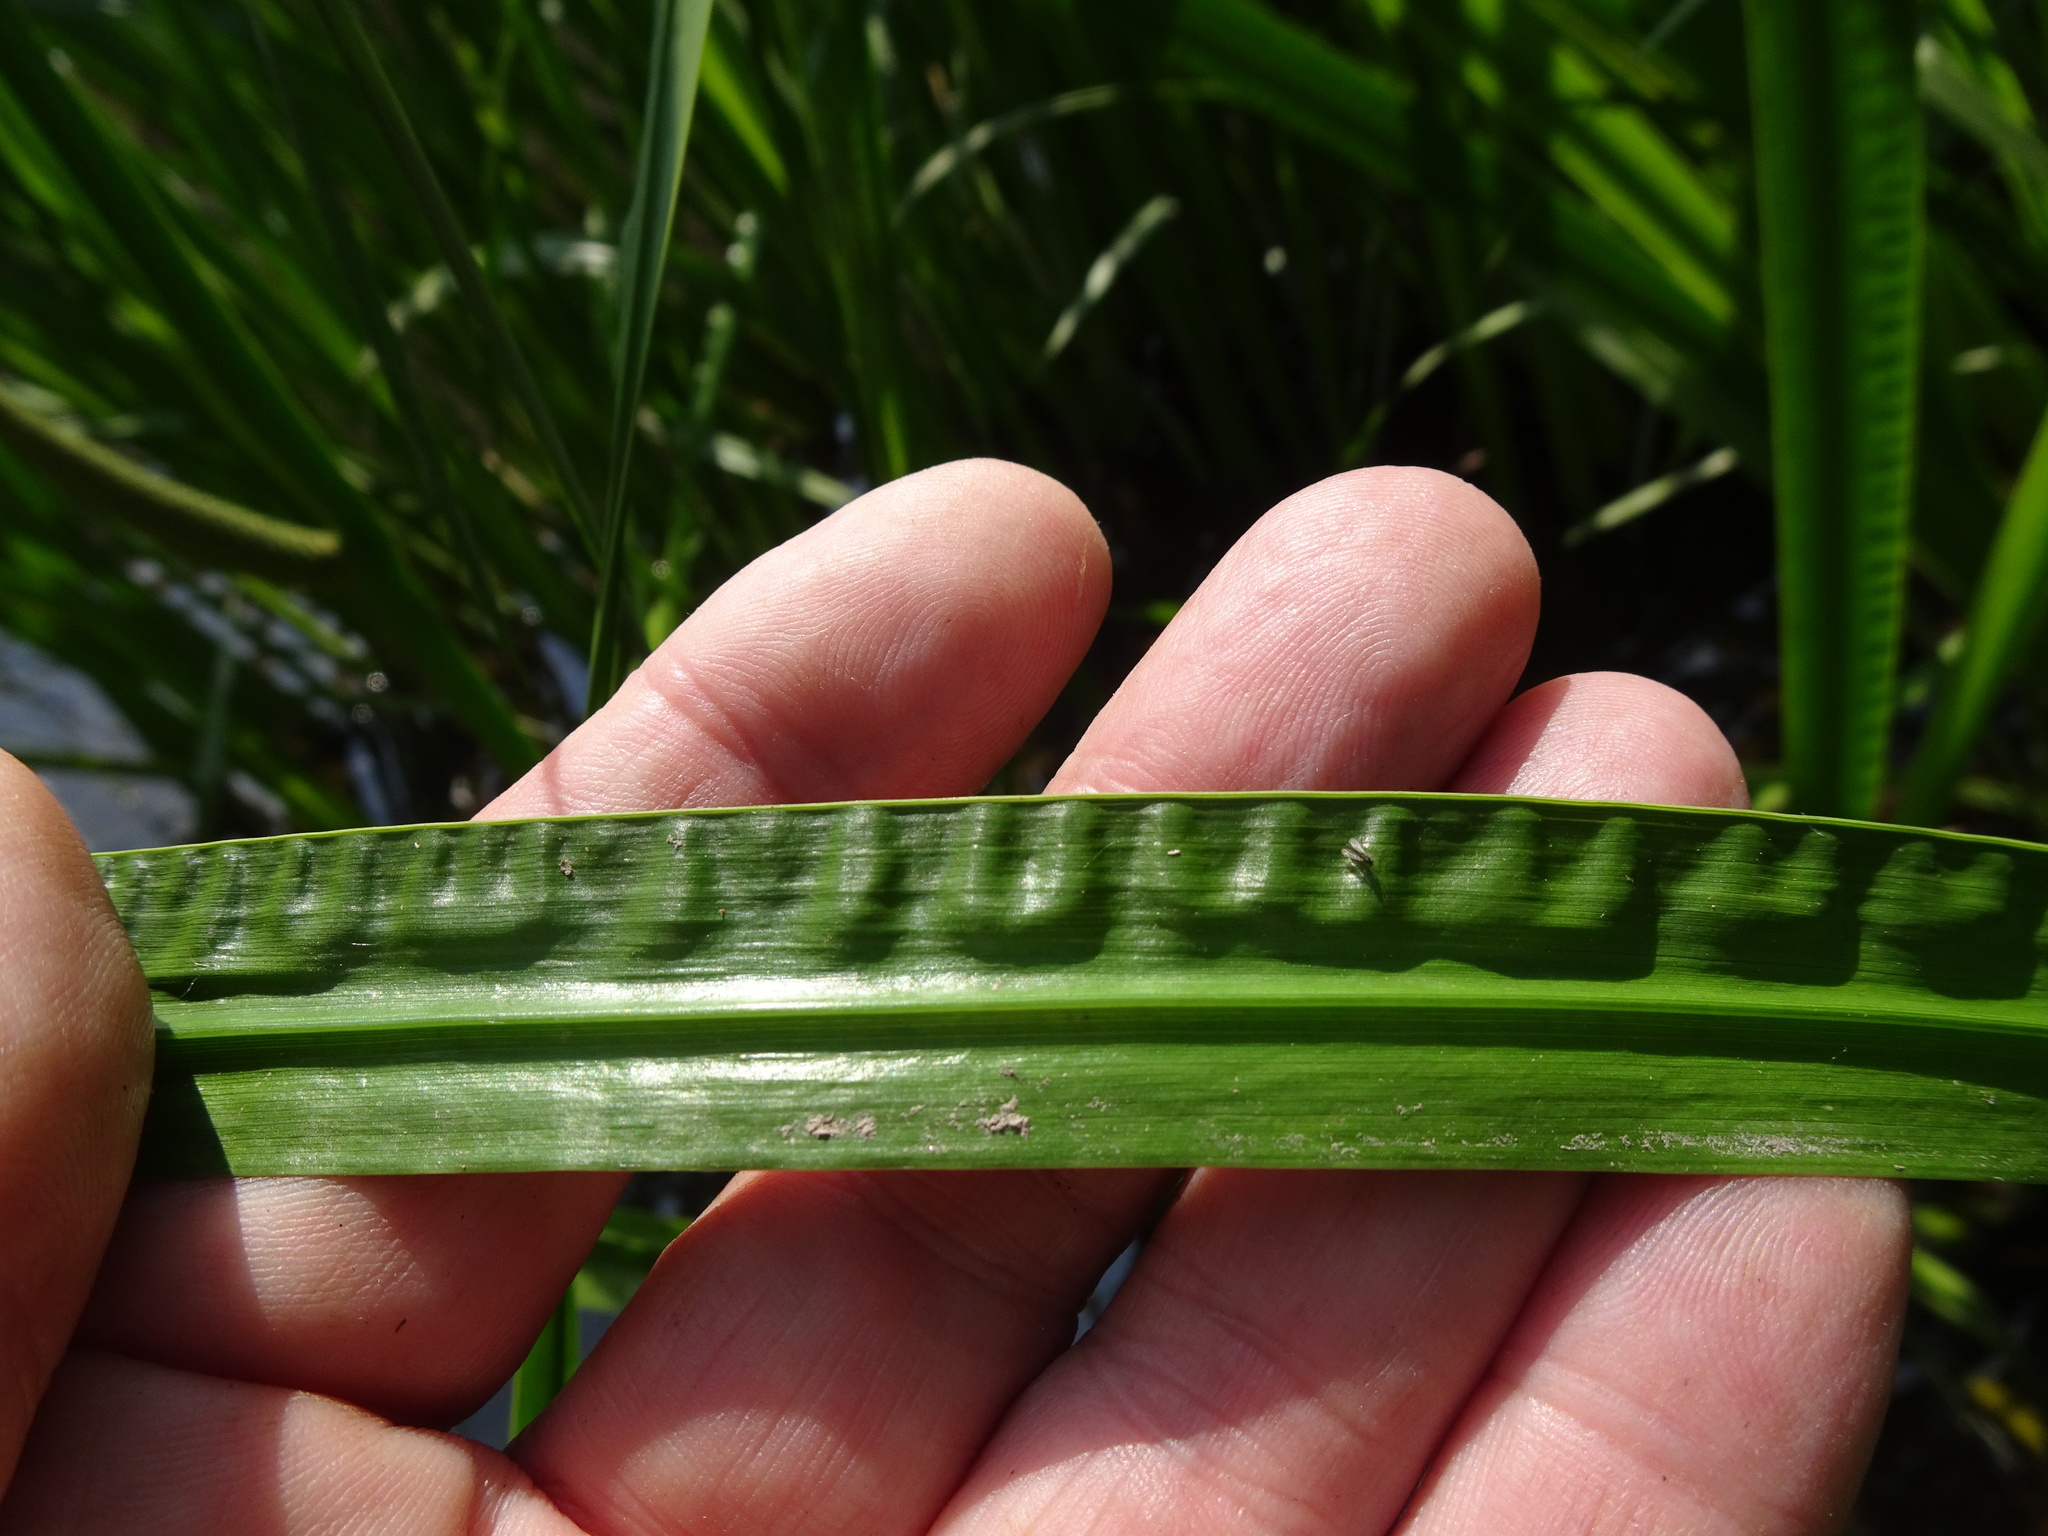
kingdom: Plantae
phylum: Tracheophyta
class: Liliopsida
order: Acorales
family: Acoraceae
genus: Acorus
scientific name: Acorus calamus
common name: Sweet-flag
